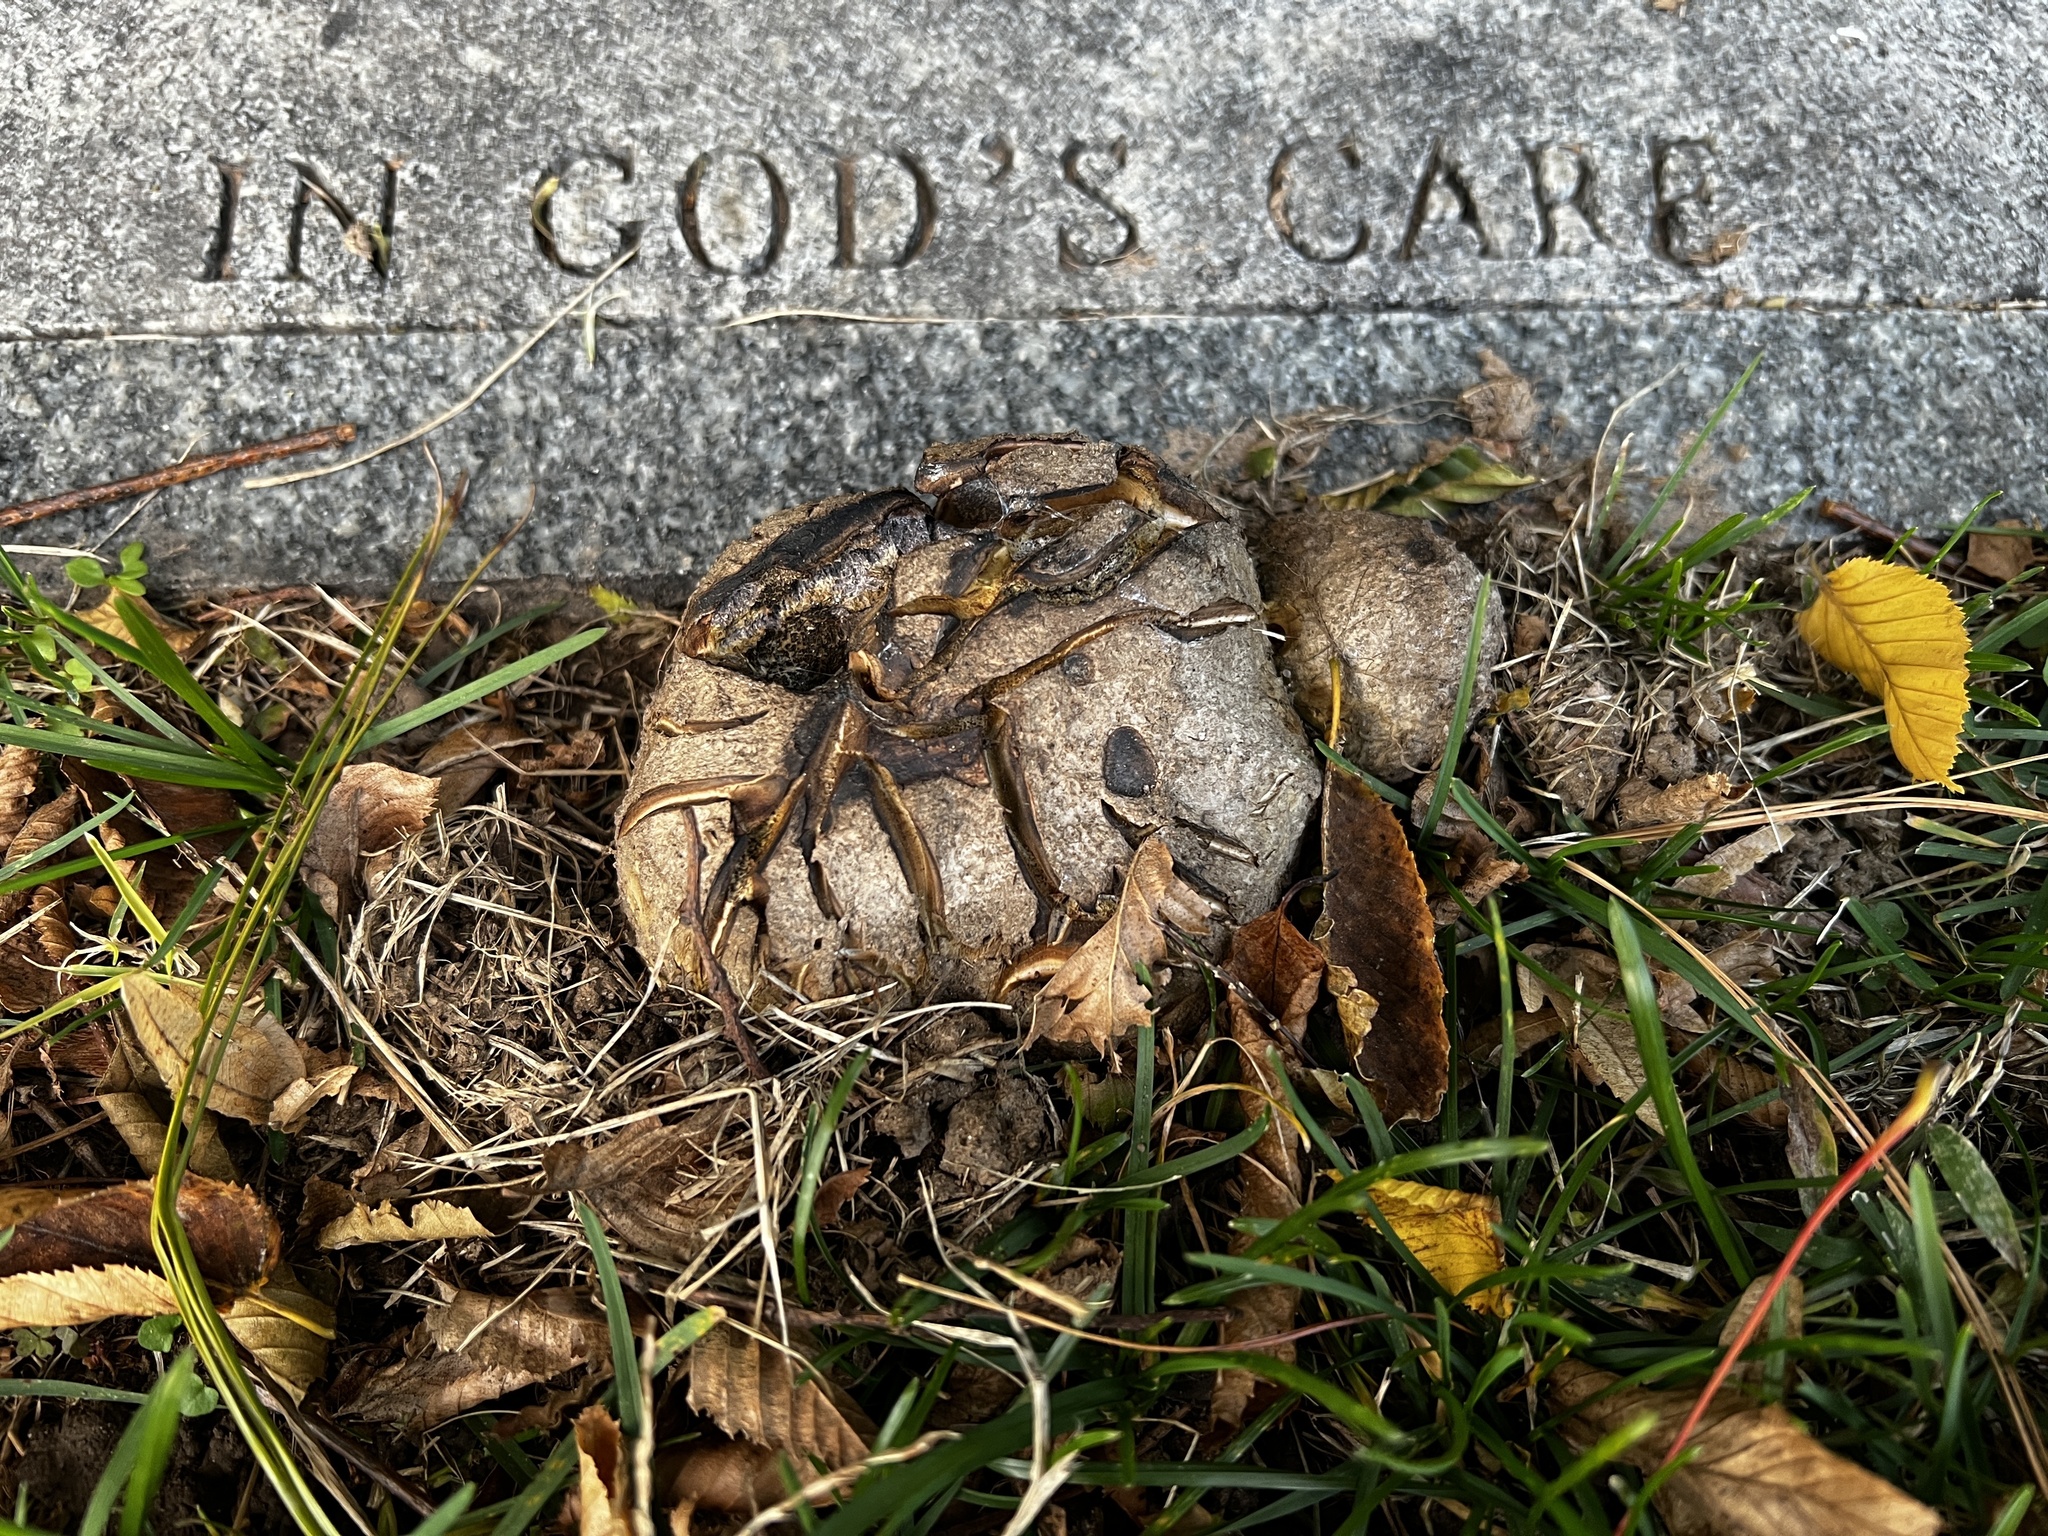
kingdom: Fungi
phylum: Basidiomycota
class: Agaricomycetes
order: Boletales
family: Sclerodermataceae
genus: Scleroderma
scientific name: Scleroderma polyrhizum
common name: Many-rooted earthball
